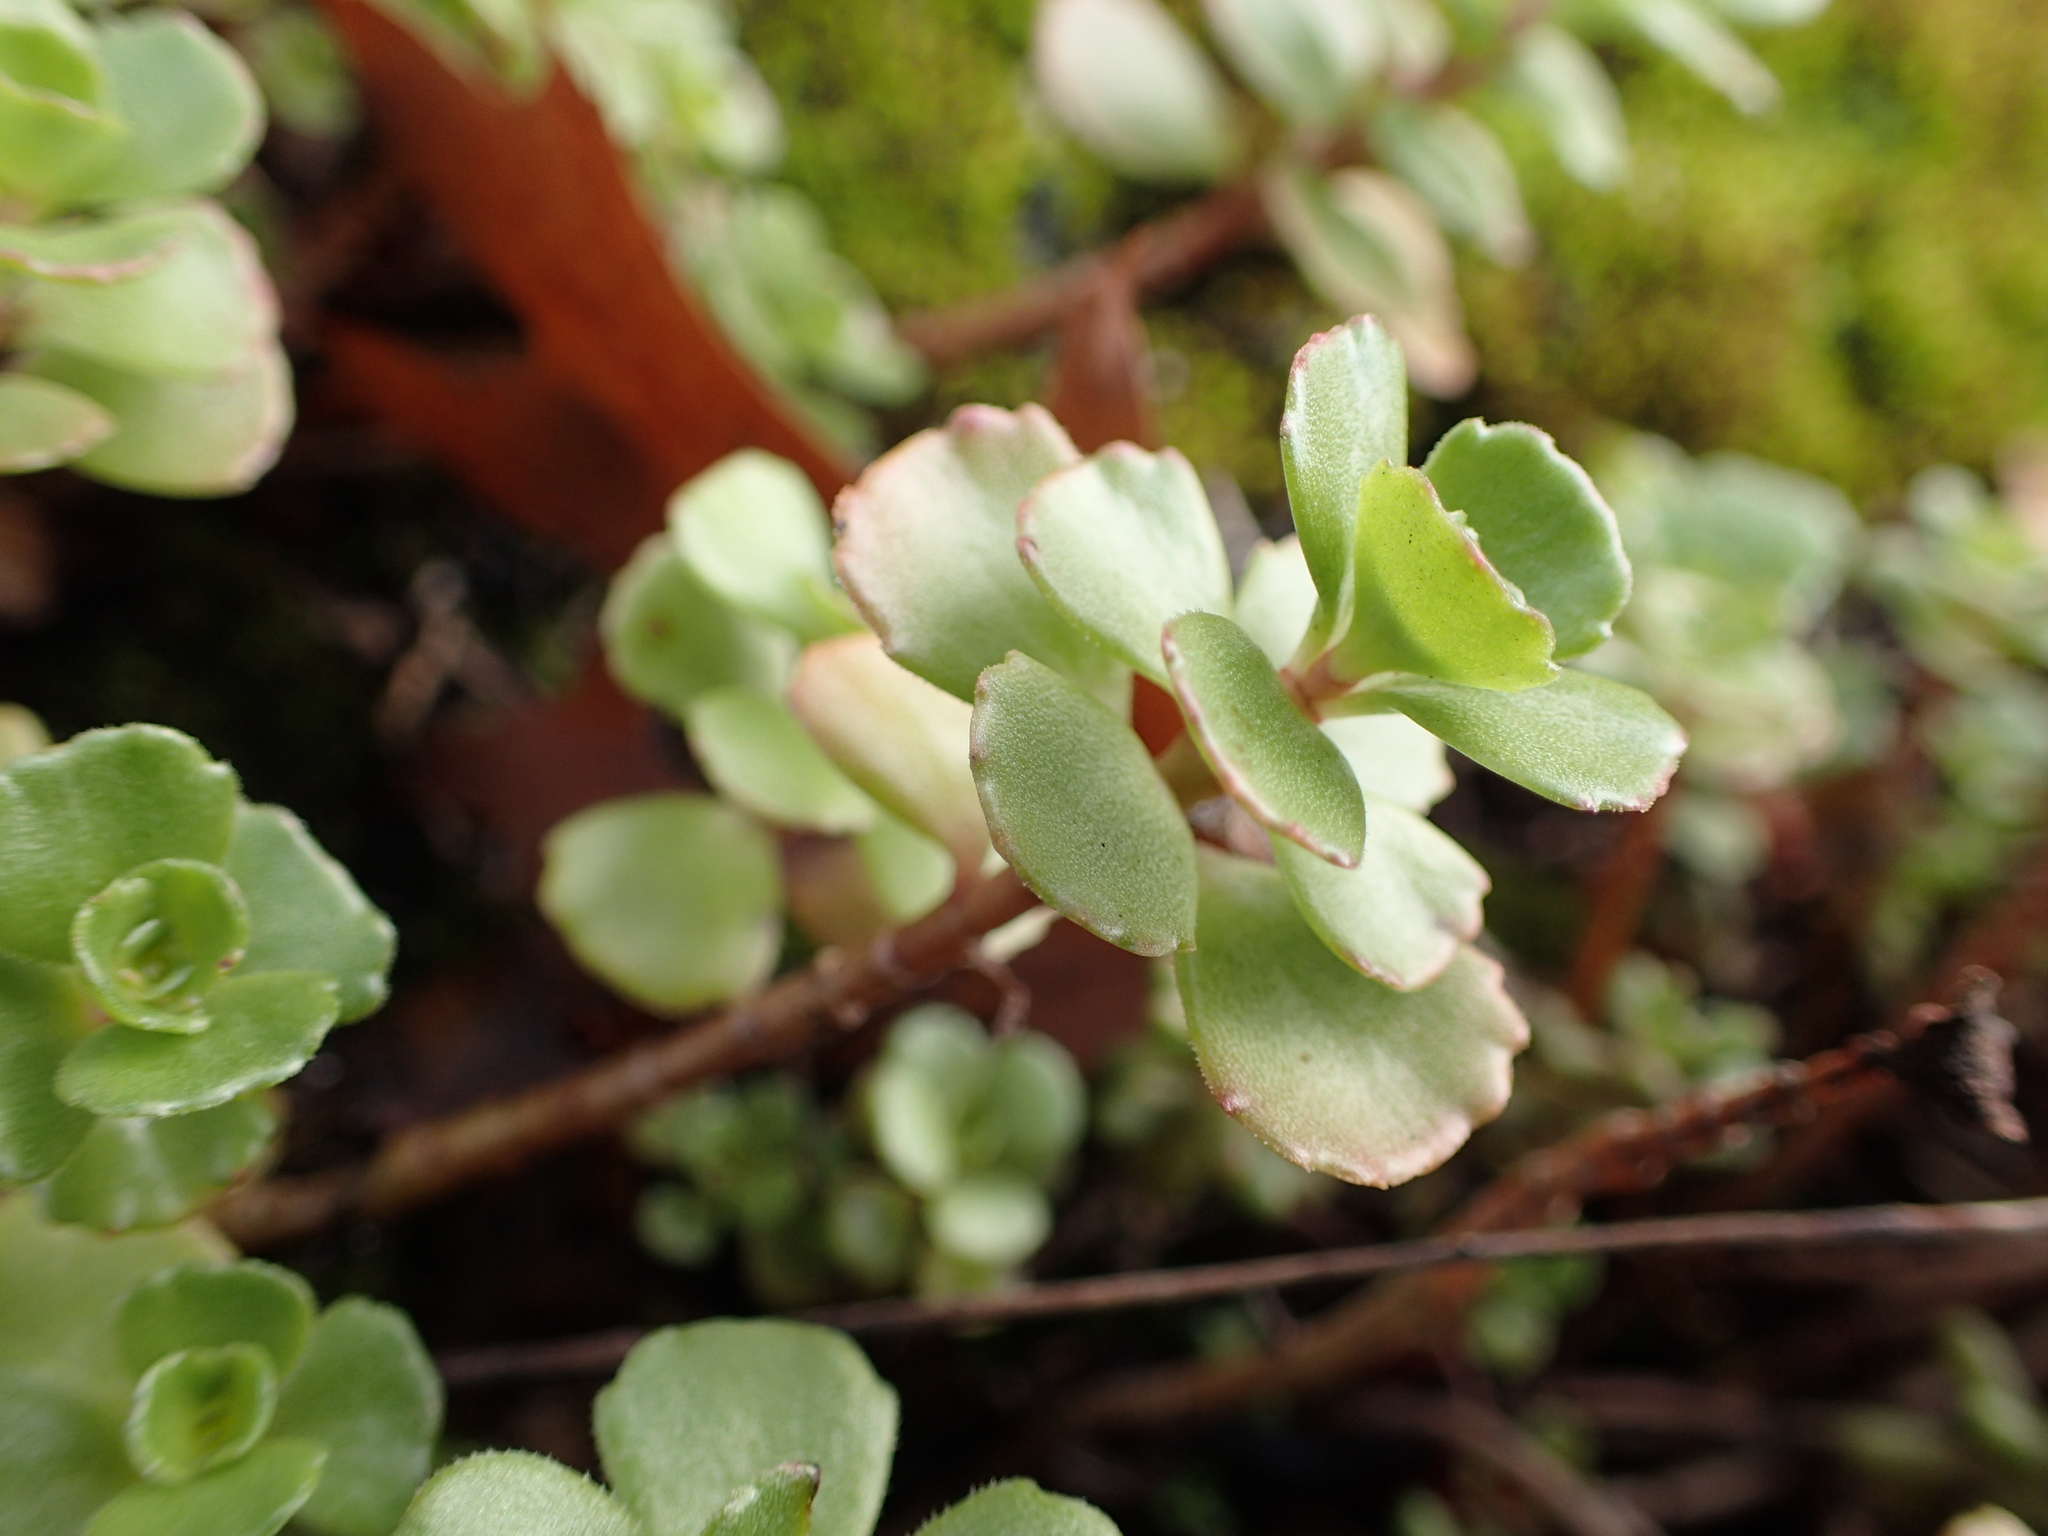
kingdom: Plantae
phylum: Tracheophyta
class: Magnoliopsida
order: Saxifragales
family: Crassulaceae
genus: Phedimus
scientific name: Phedimus spurius
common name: Caucasian stonecrop
